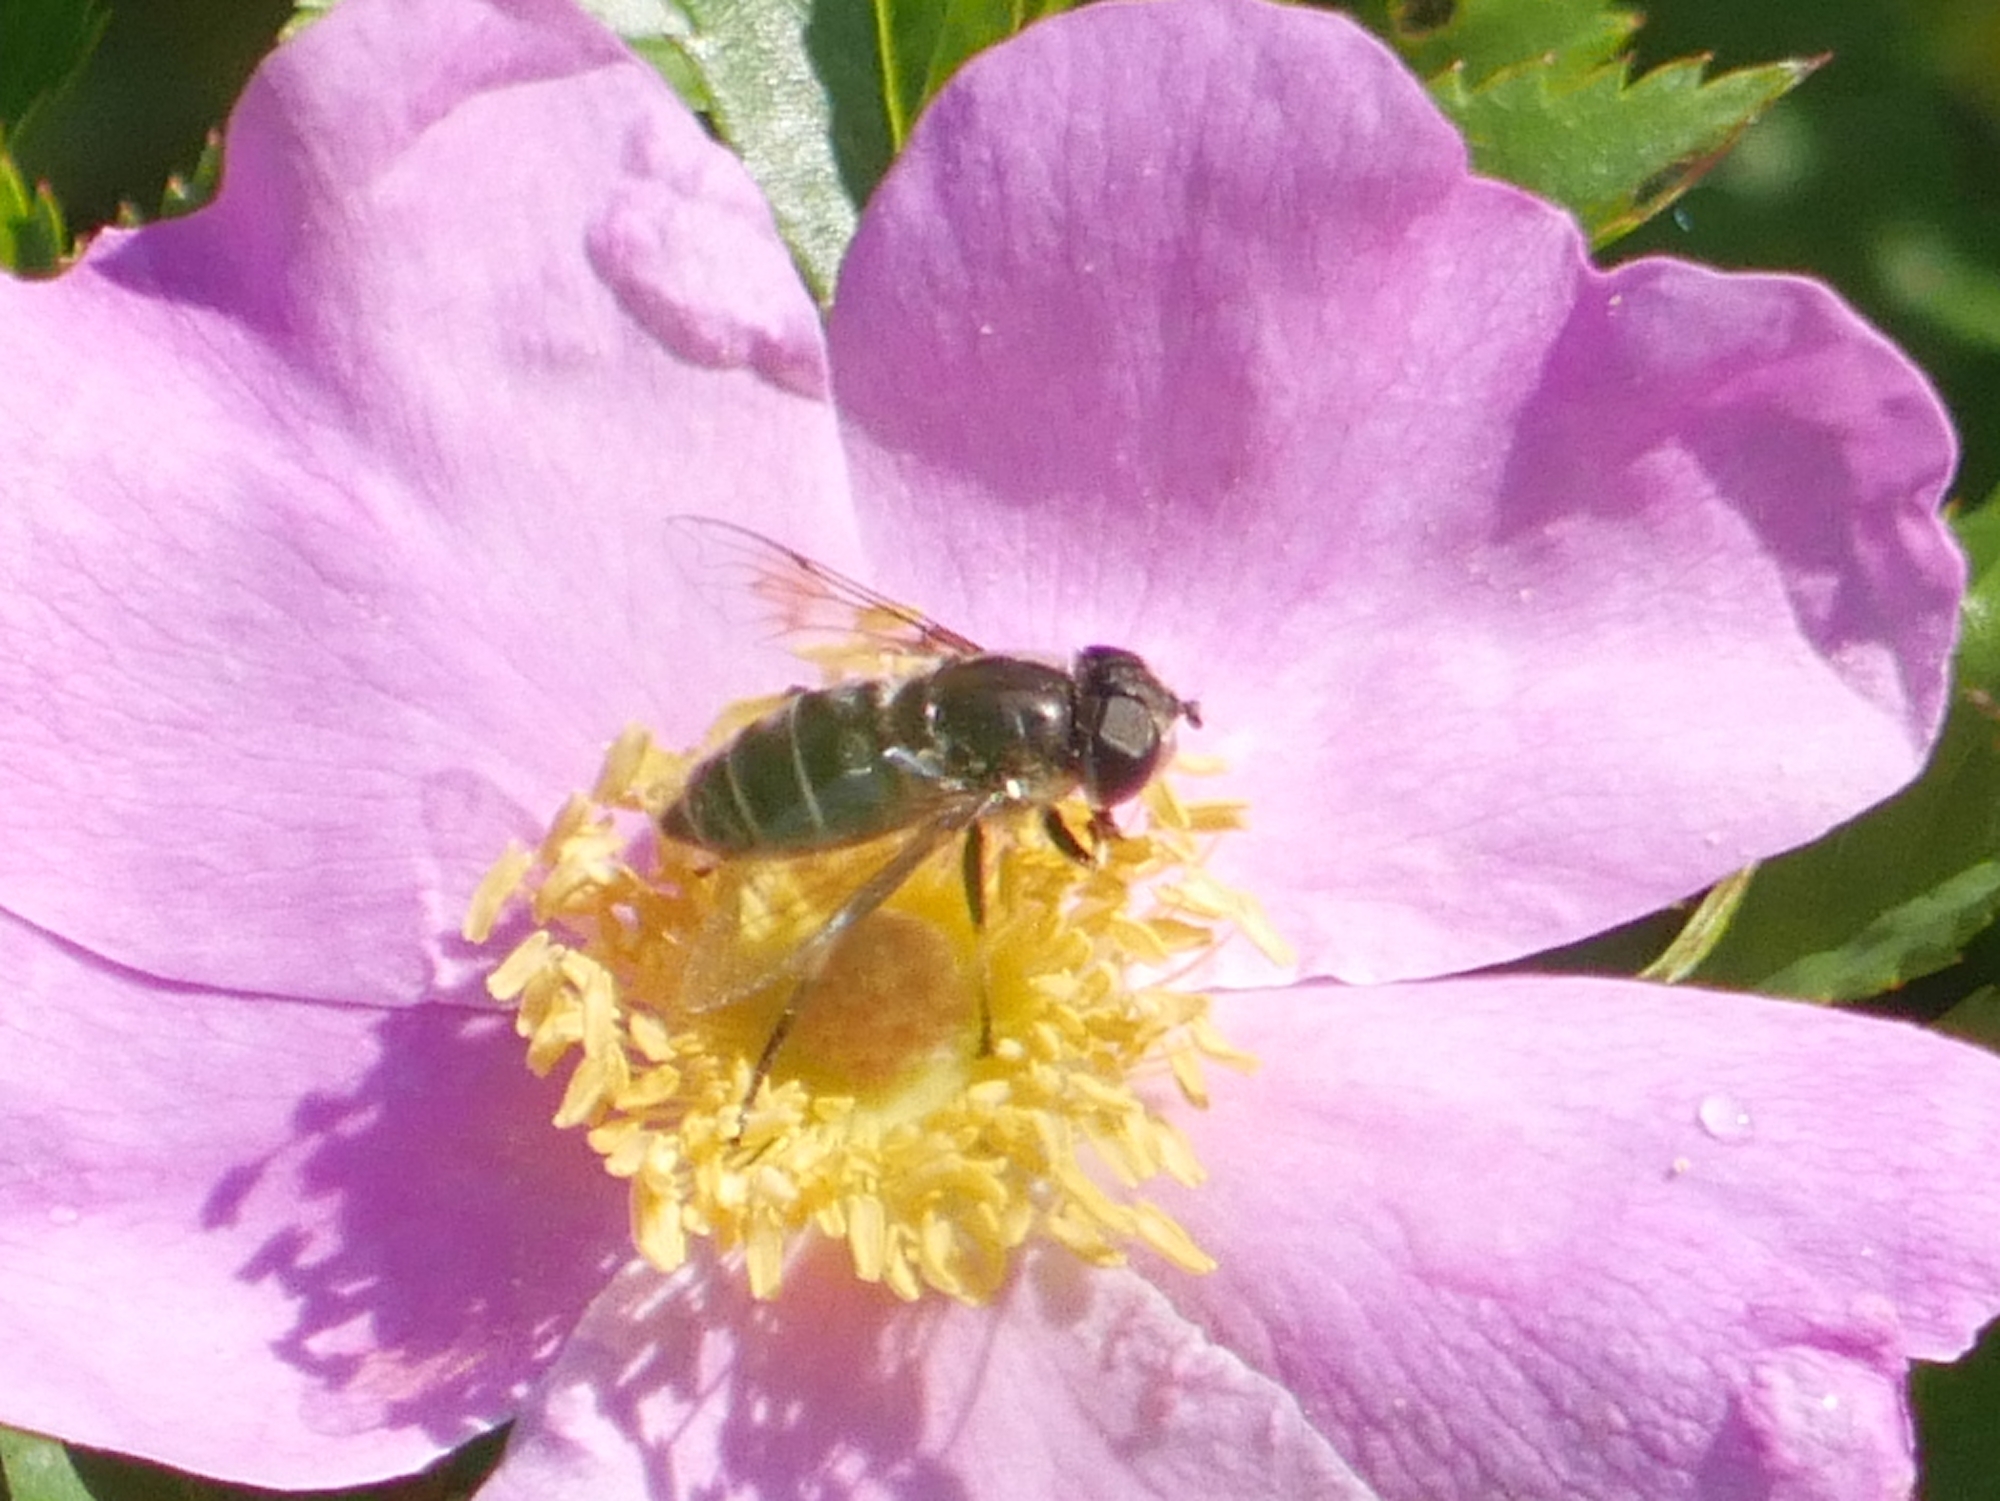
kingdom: Animalia
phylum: Arthropoda
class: Insecta
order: Diptera
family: Syrphidae
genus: Eristalis
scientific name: Eristalis dimidiata
